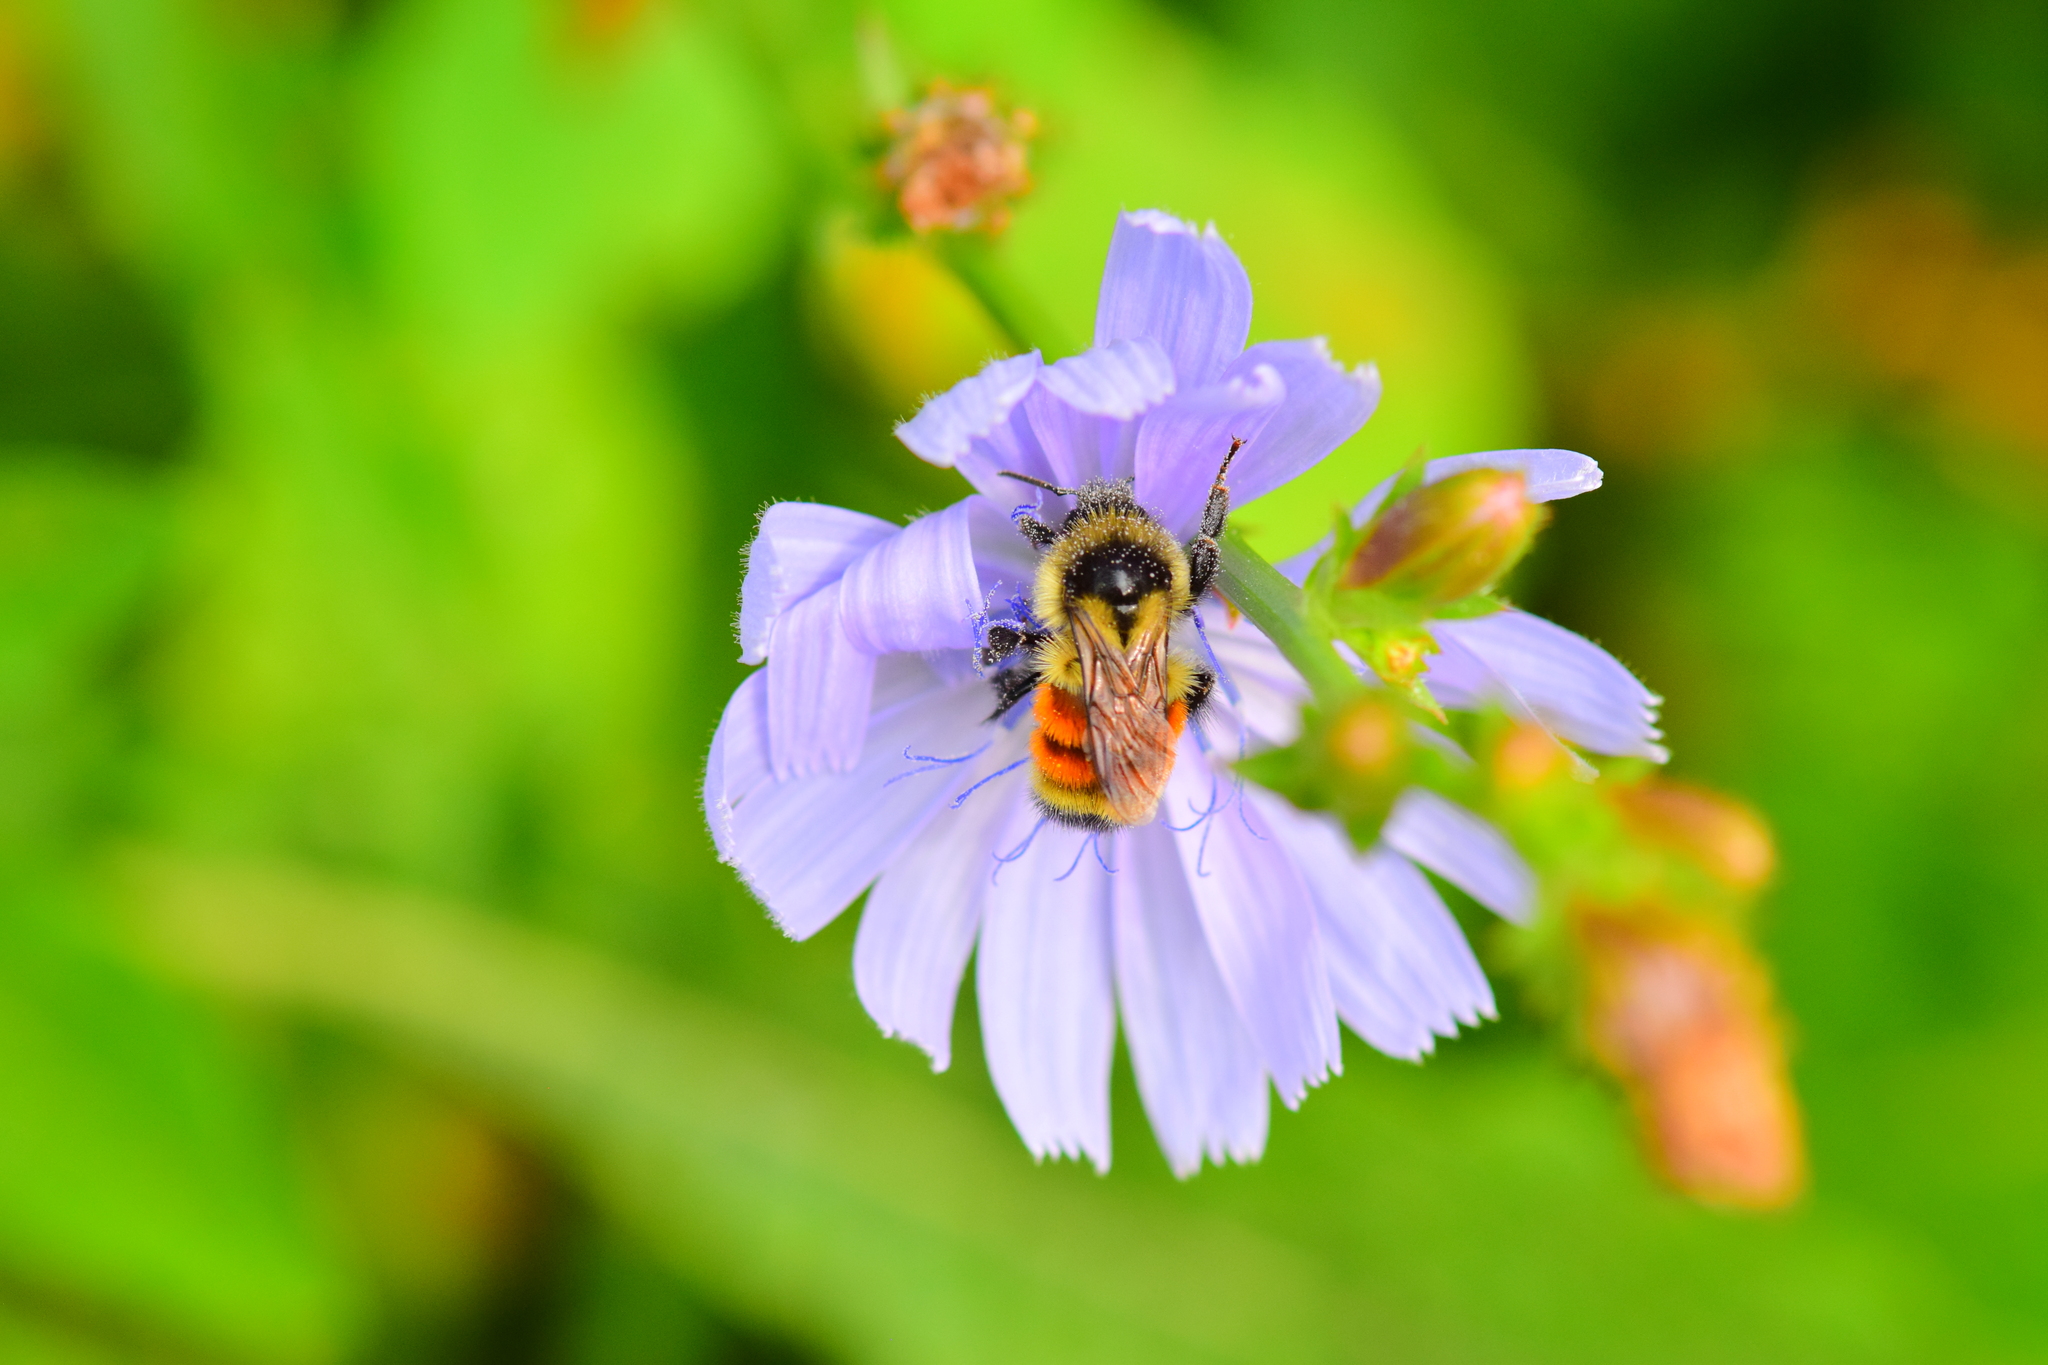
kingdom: Animalia
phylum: Arthropoda
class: Insecta
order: Hymenoptera
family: Apidae
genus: Bombus
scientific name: Bombus ternarius
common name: Tri-colored bumble bee
